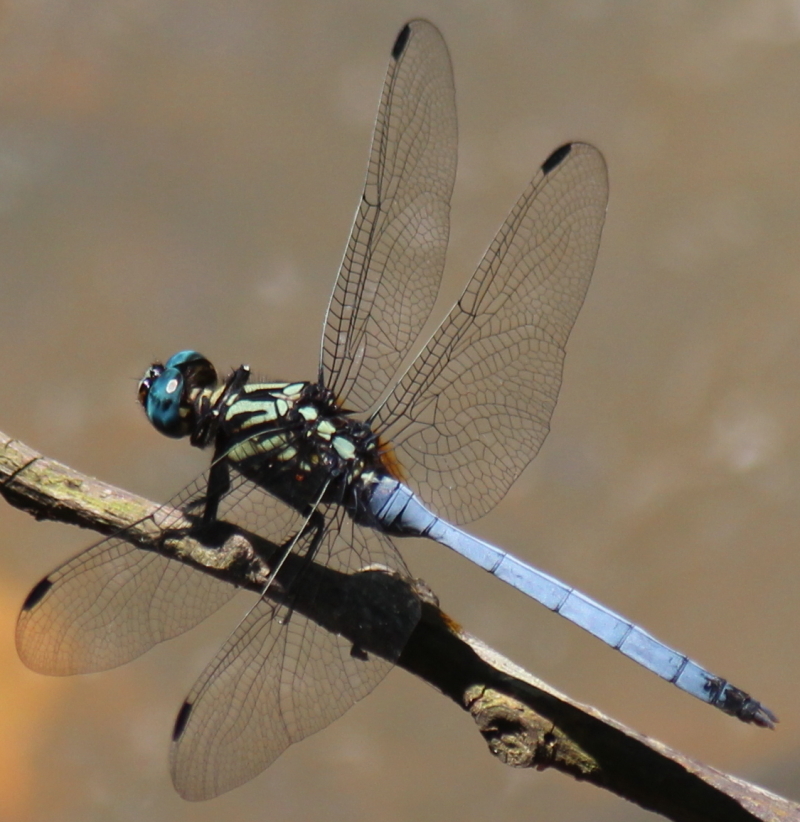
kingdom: Animalia
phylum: Arthropoda
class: Insecta
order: Odonata
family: Libellulidae
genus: Orthetrum
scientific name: Orthetrum julia
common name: Julia skimmer
